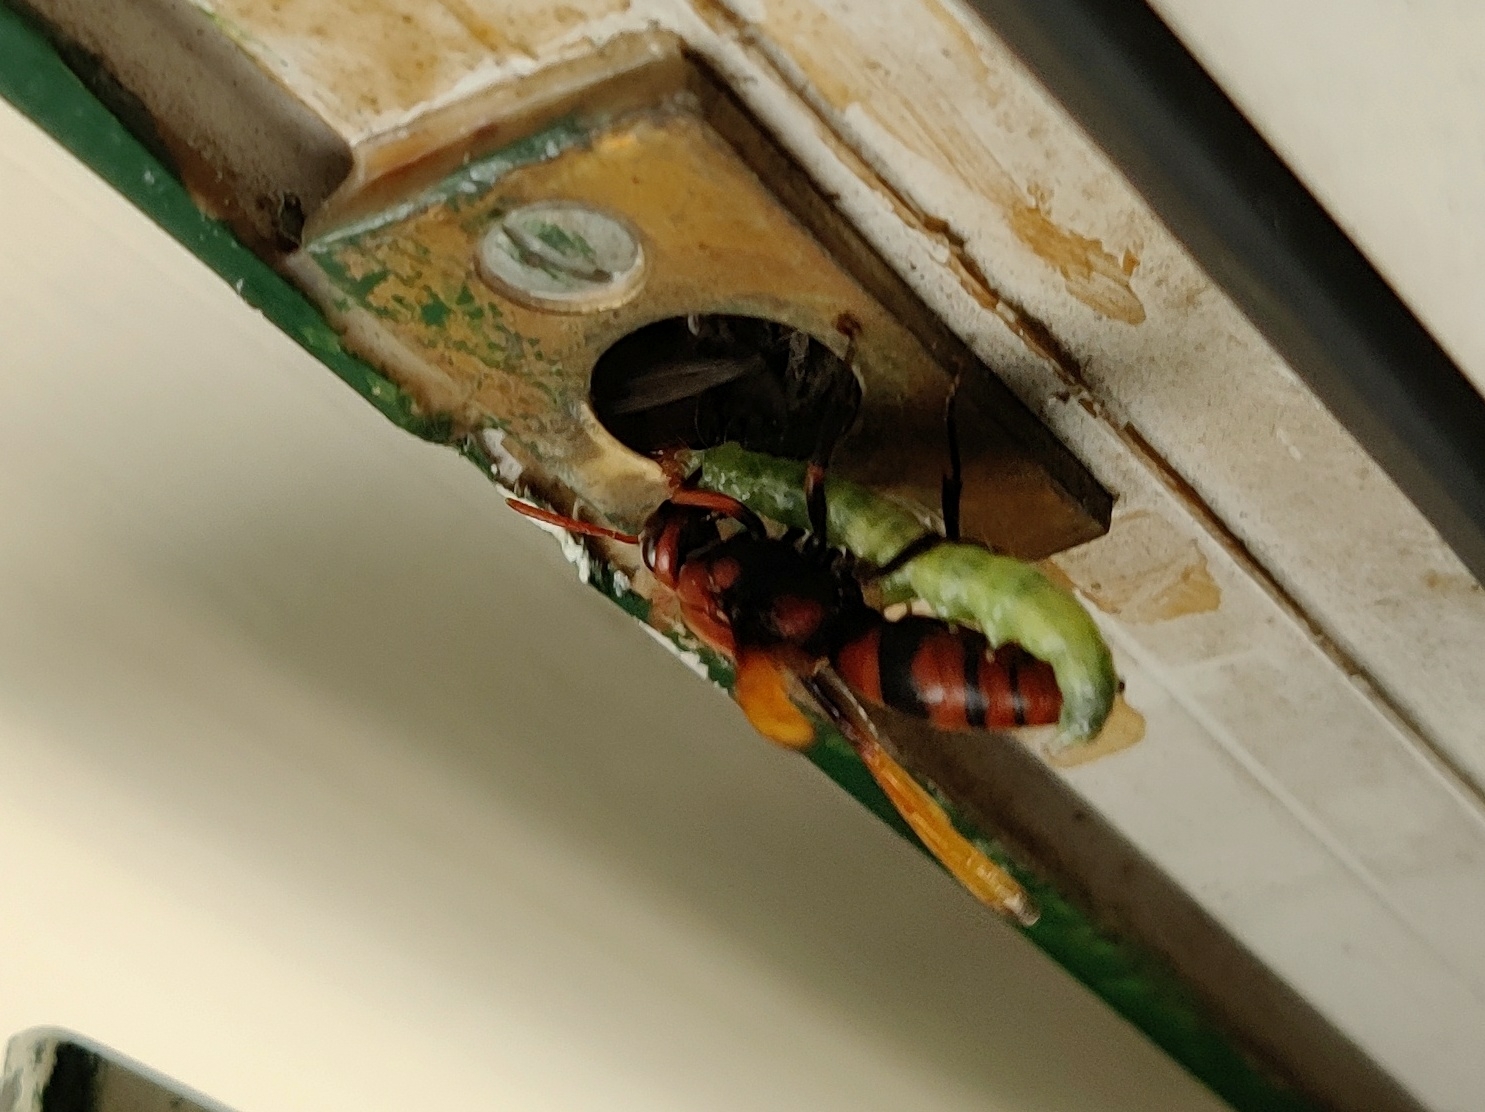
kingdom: Animalia
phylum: Arthropoda
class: Insecta
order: Hymenoptera
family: Eumenidae
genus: Rhynchium
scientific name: Rhynchium brunneum
